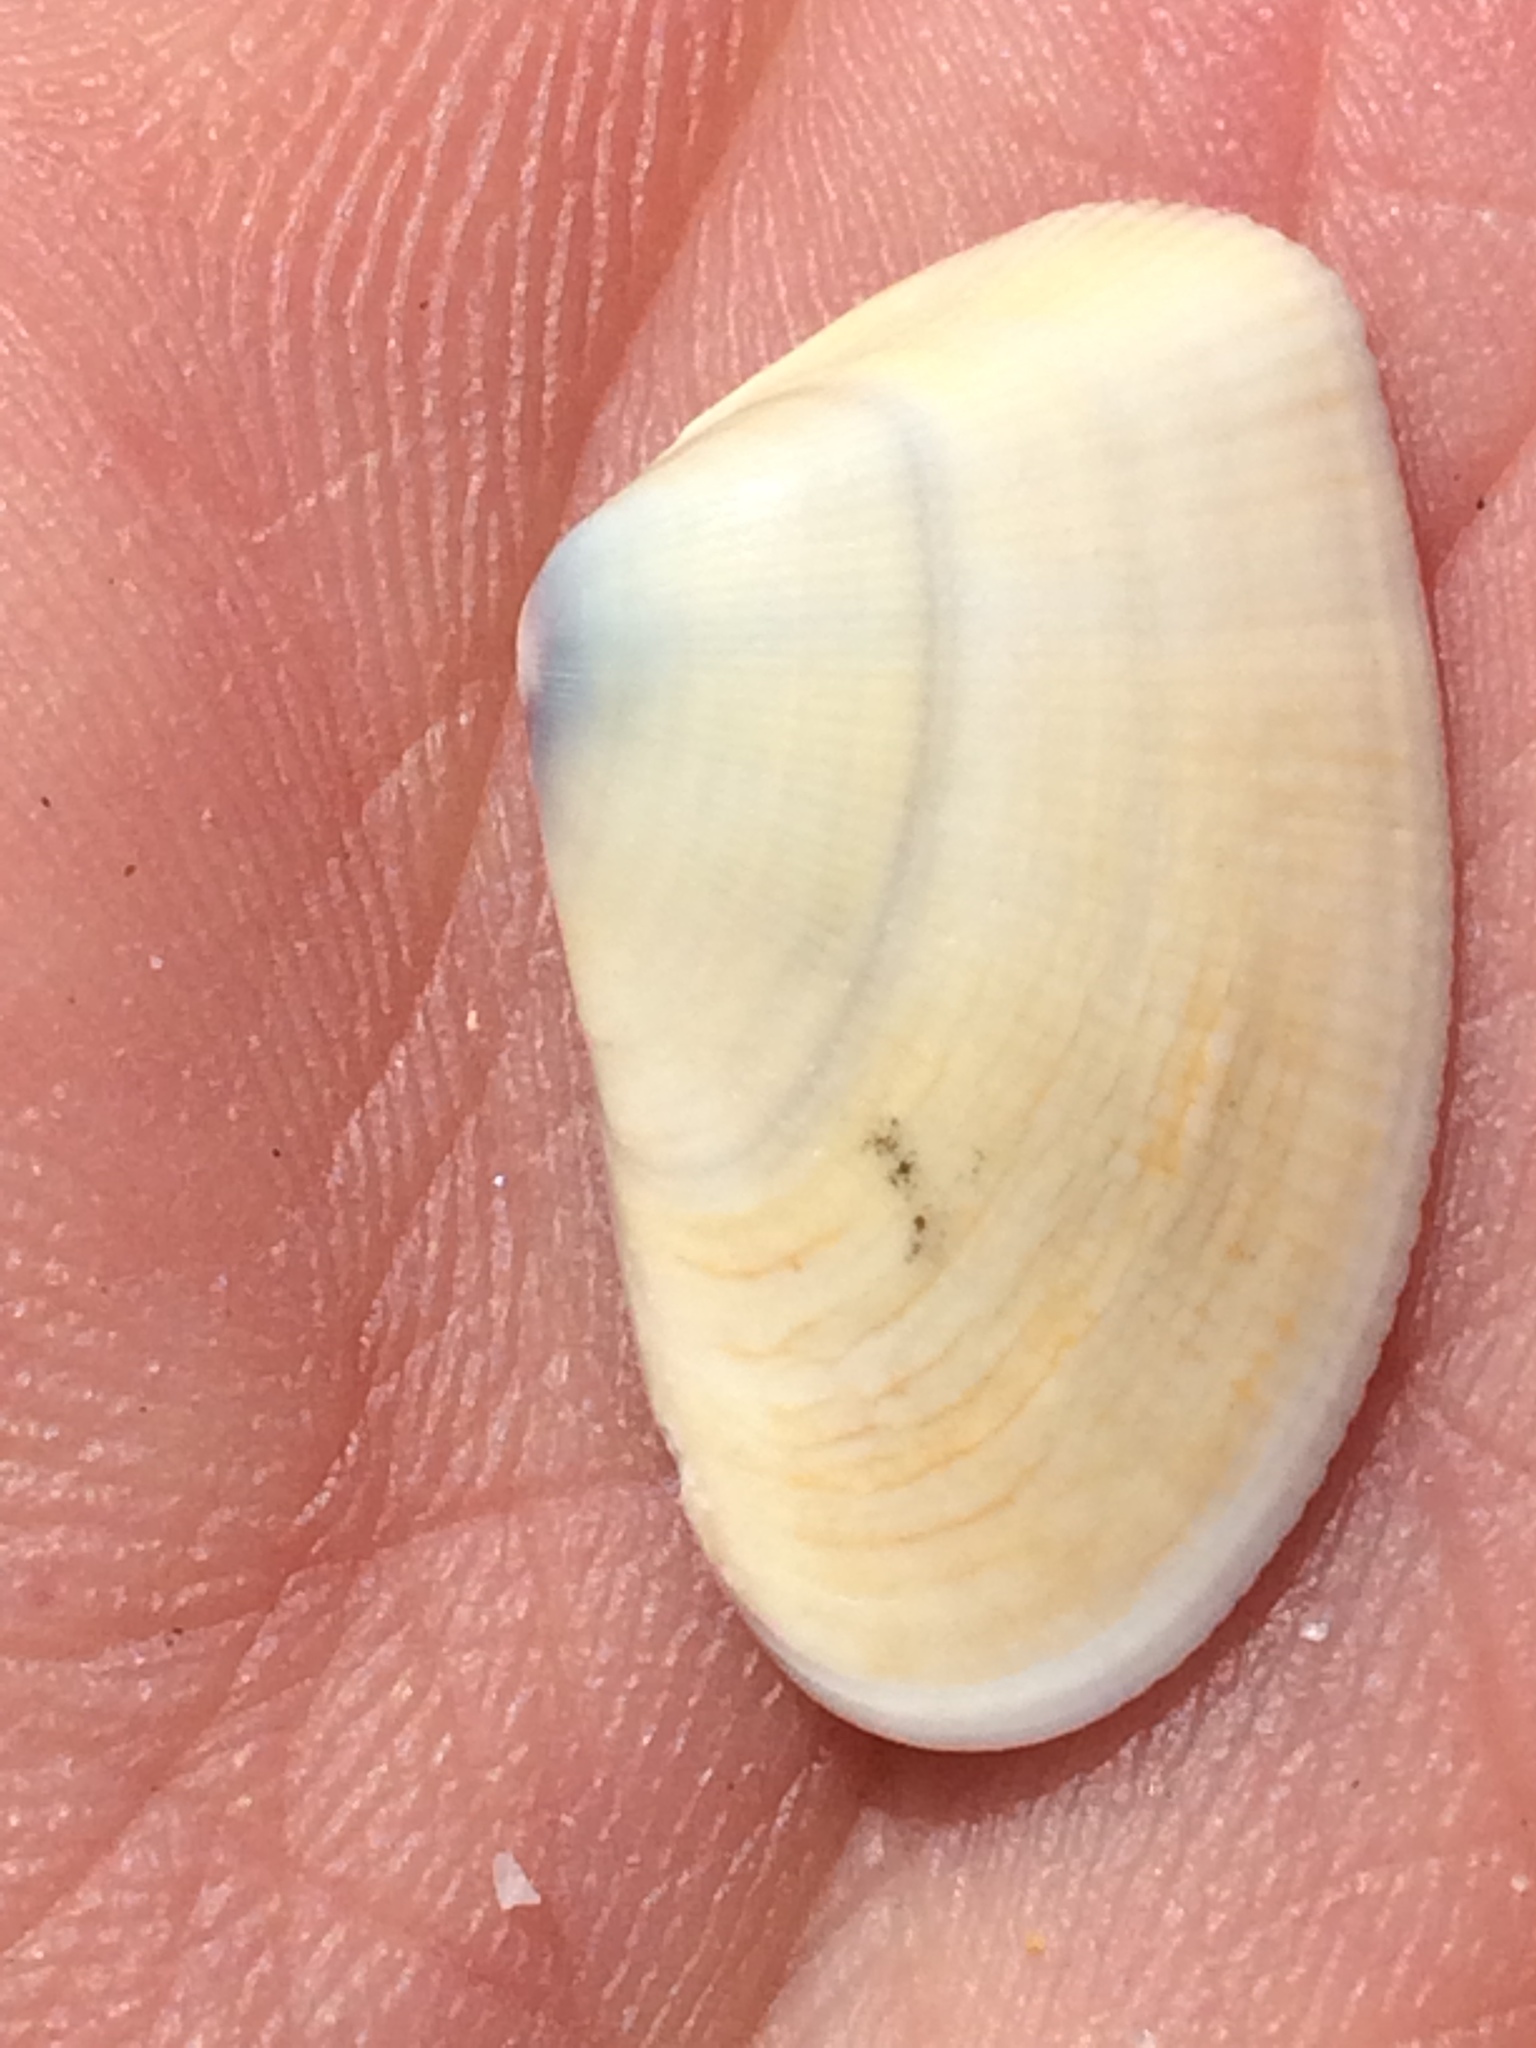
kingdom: Animalia
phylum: Mollusca
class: Bivalvia
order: Cardiida
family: Donacidae
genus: Donax
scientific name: Donax gouldii
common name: Gould beanclam
